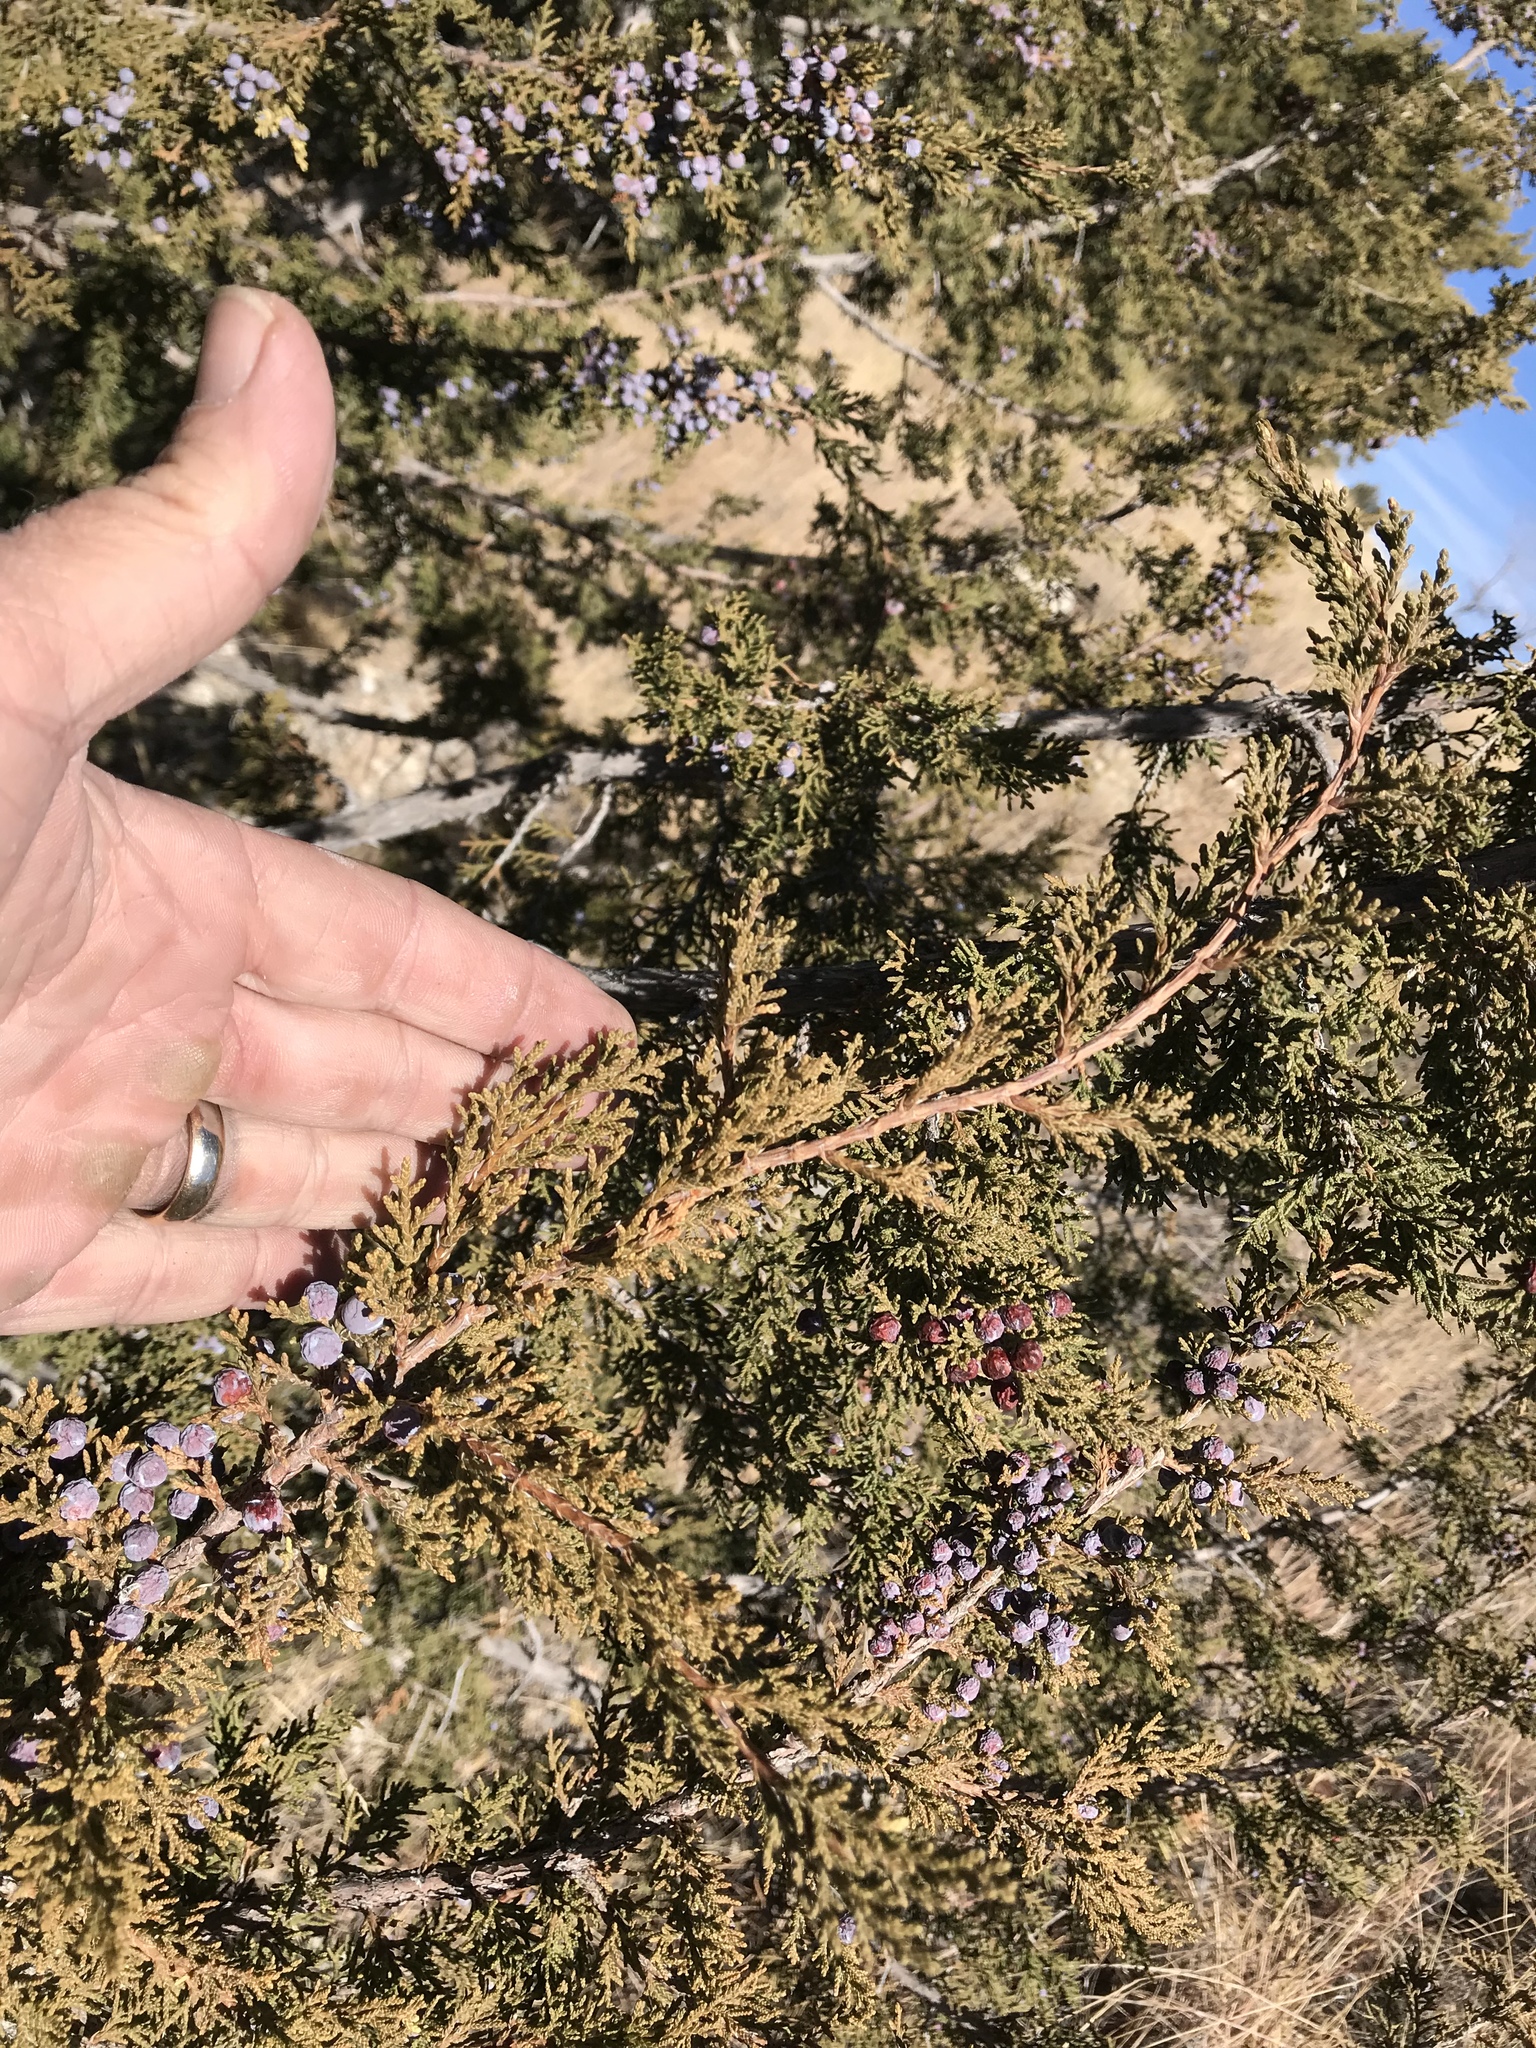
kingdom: Plantae
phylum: Tracheophyta
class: Pinopsida
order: Pinales
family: Cupressaceae
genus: Juniperus
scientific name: Juniperus monosperma
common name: One-seed juniper
